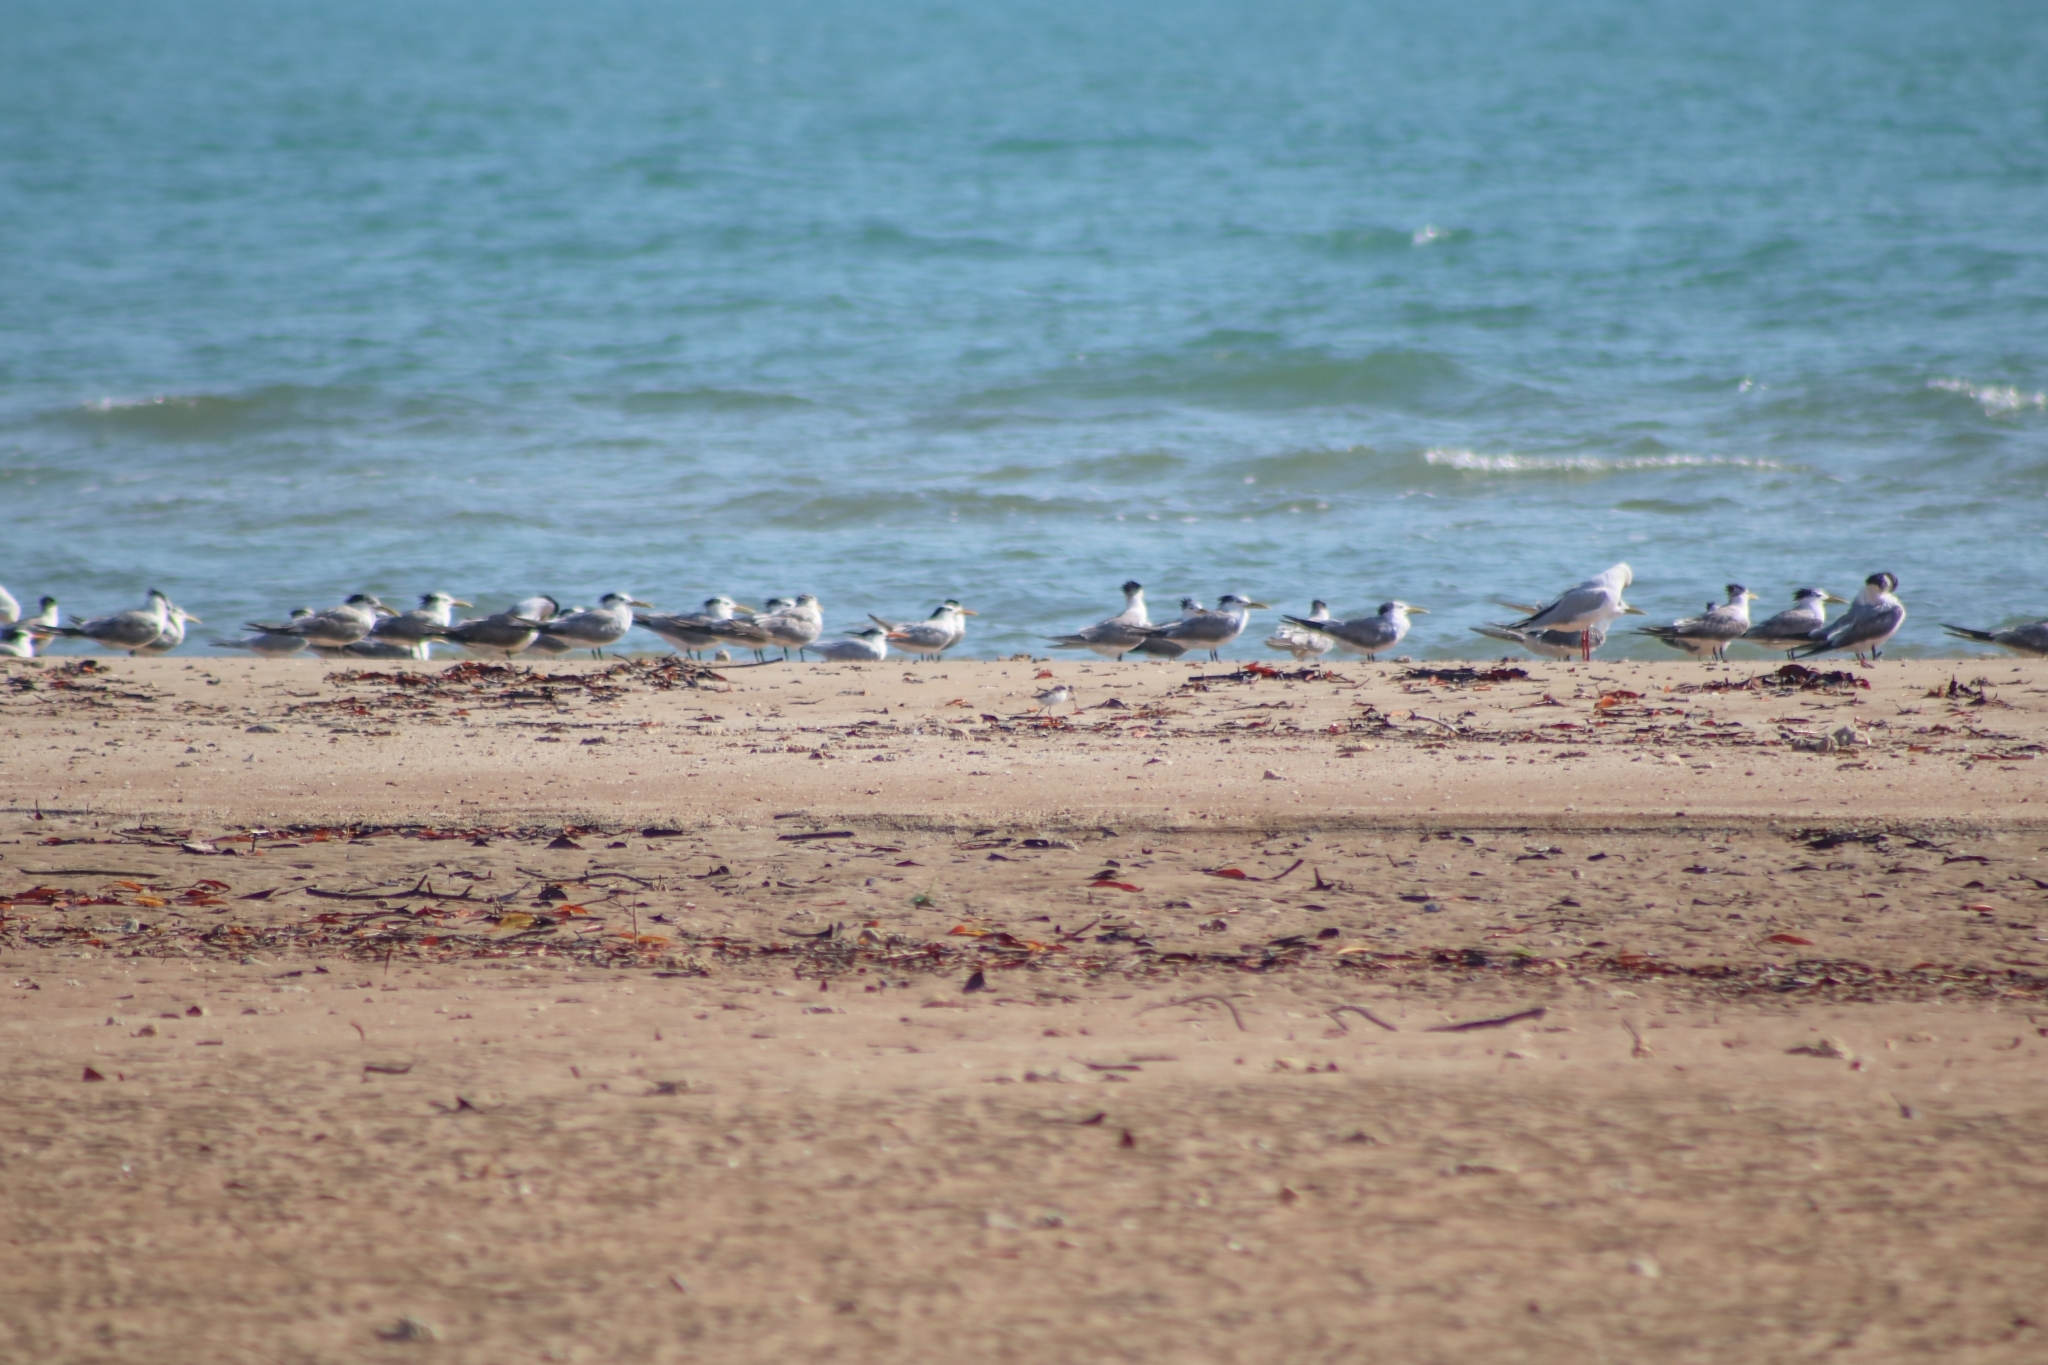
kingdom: Animalia
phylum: Chordata
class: Aves
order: Charadriiformes
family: Charadriidae
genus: Anarhynchus
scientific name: Anarhynchus
